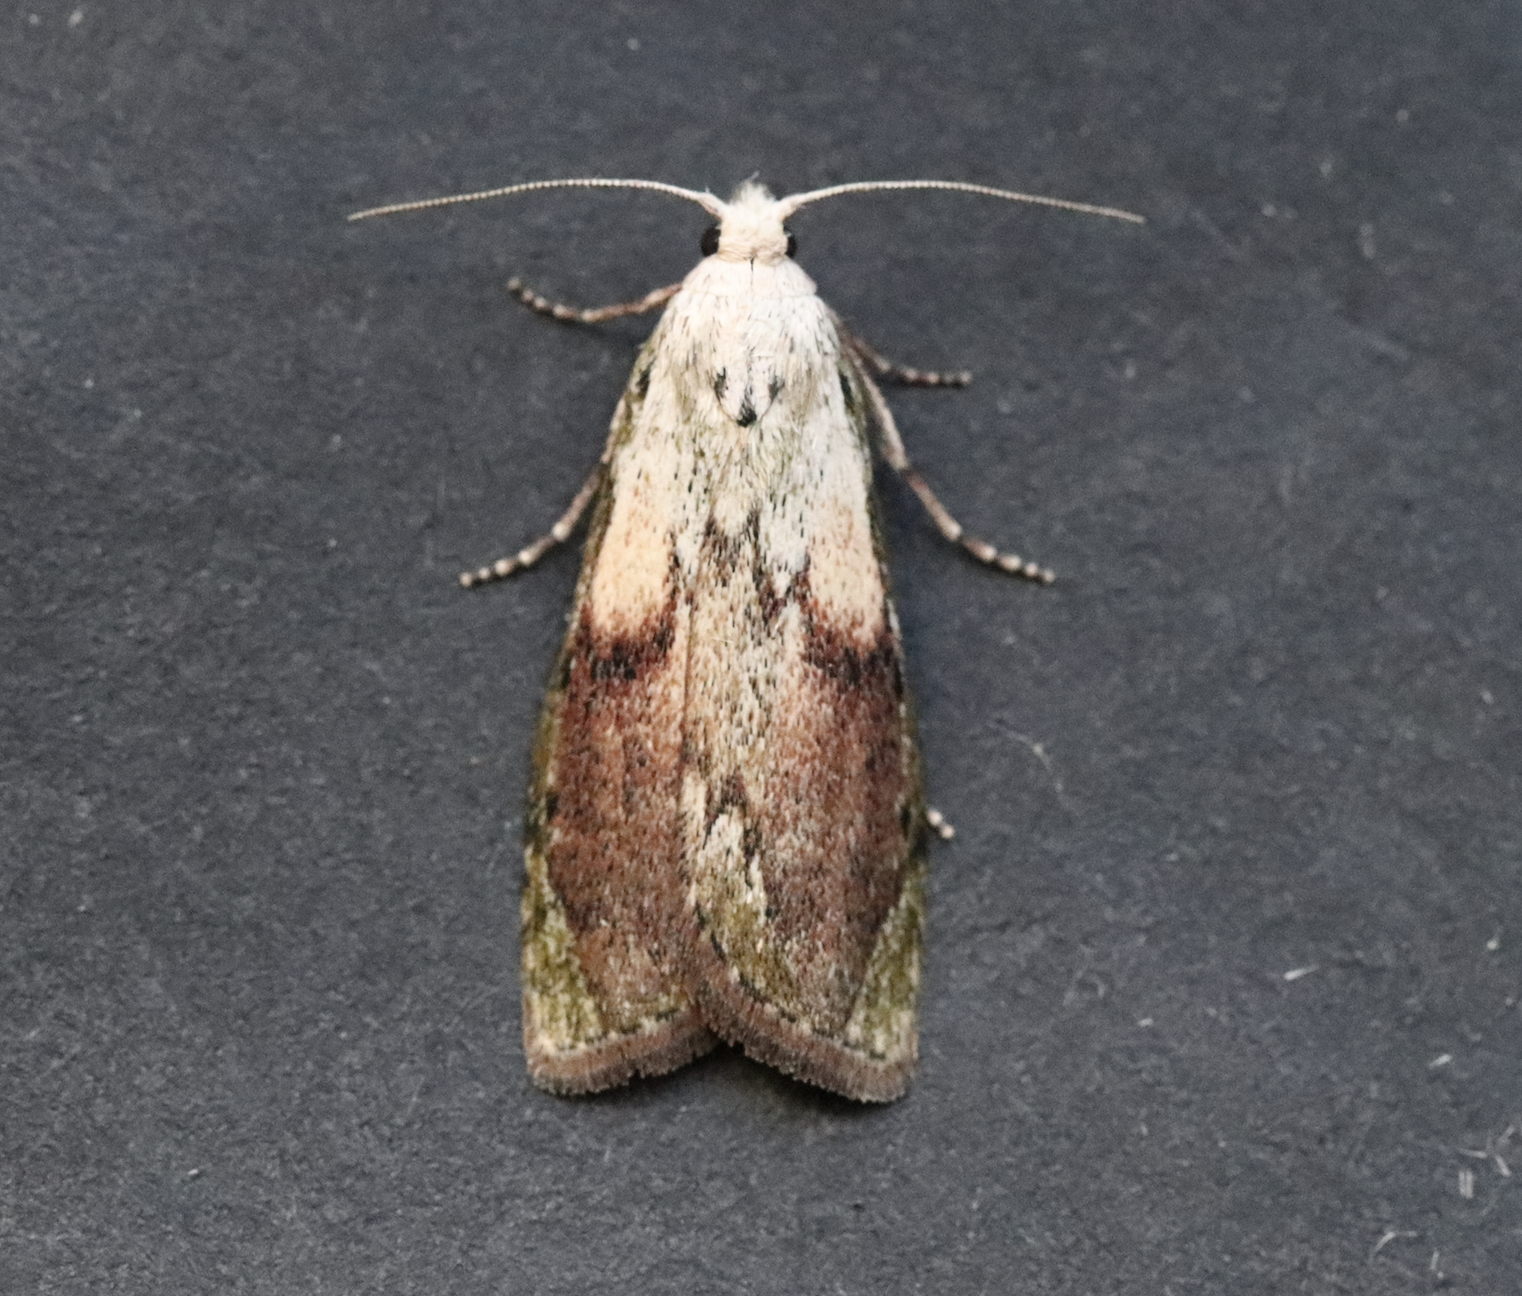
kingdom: Animalia
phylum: Arthropoda
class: Insecta
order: Lepidoptera
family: Pyralidae
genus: Aphomia
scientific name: Aphomia sociella
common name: Bee moth
